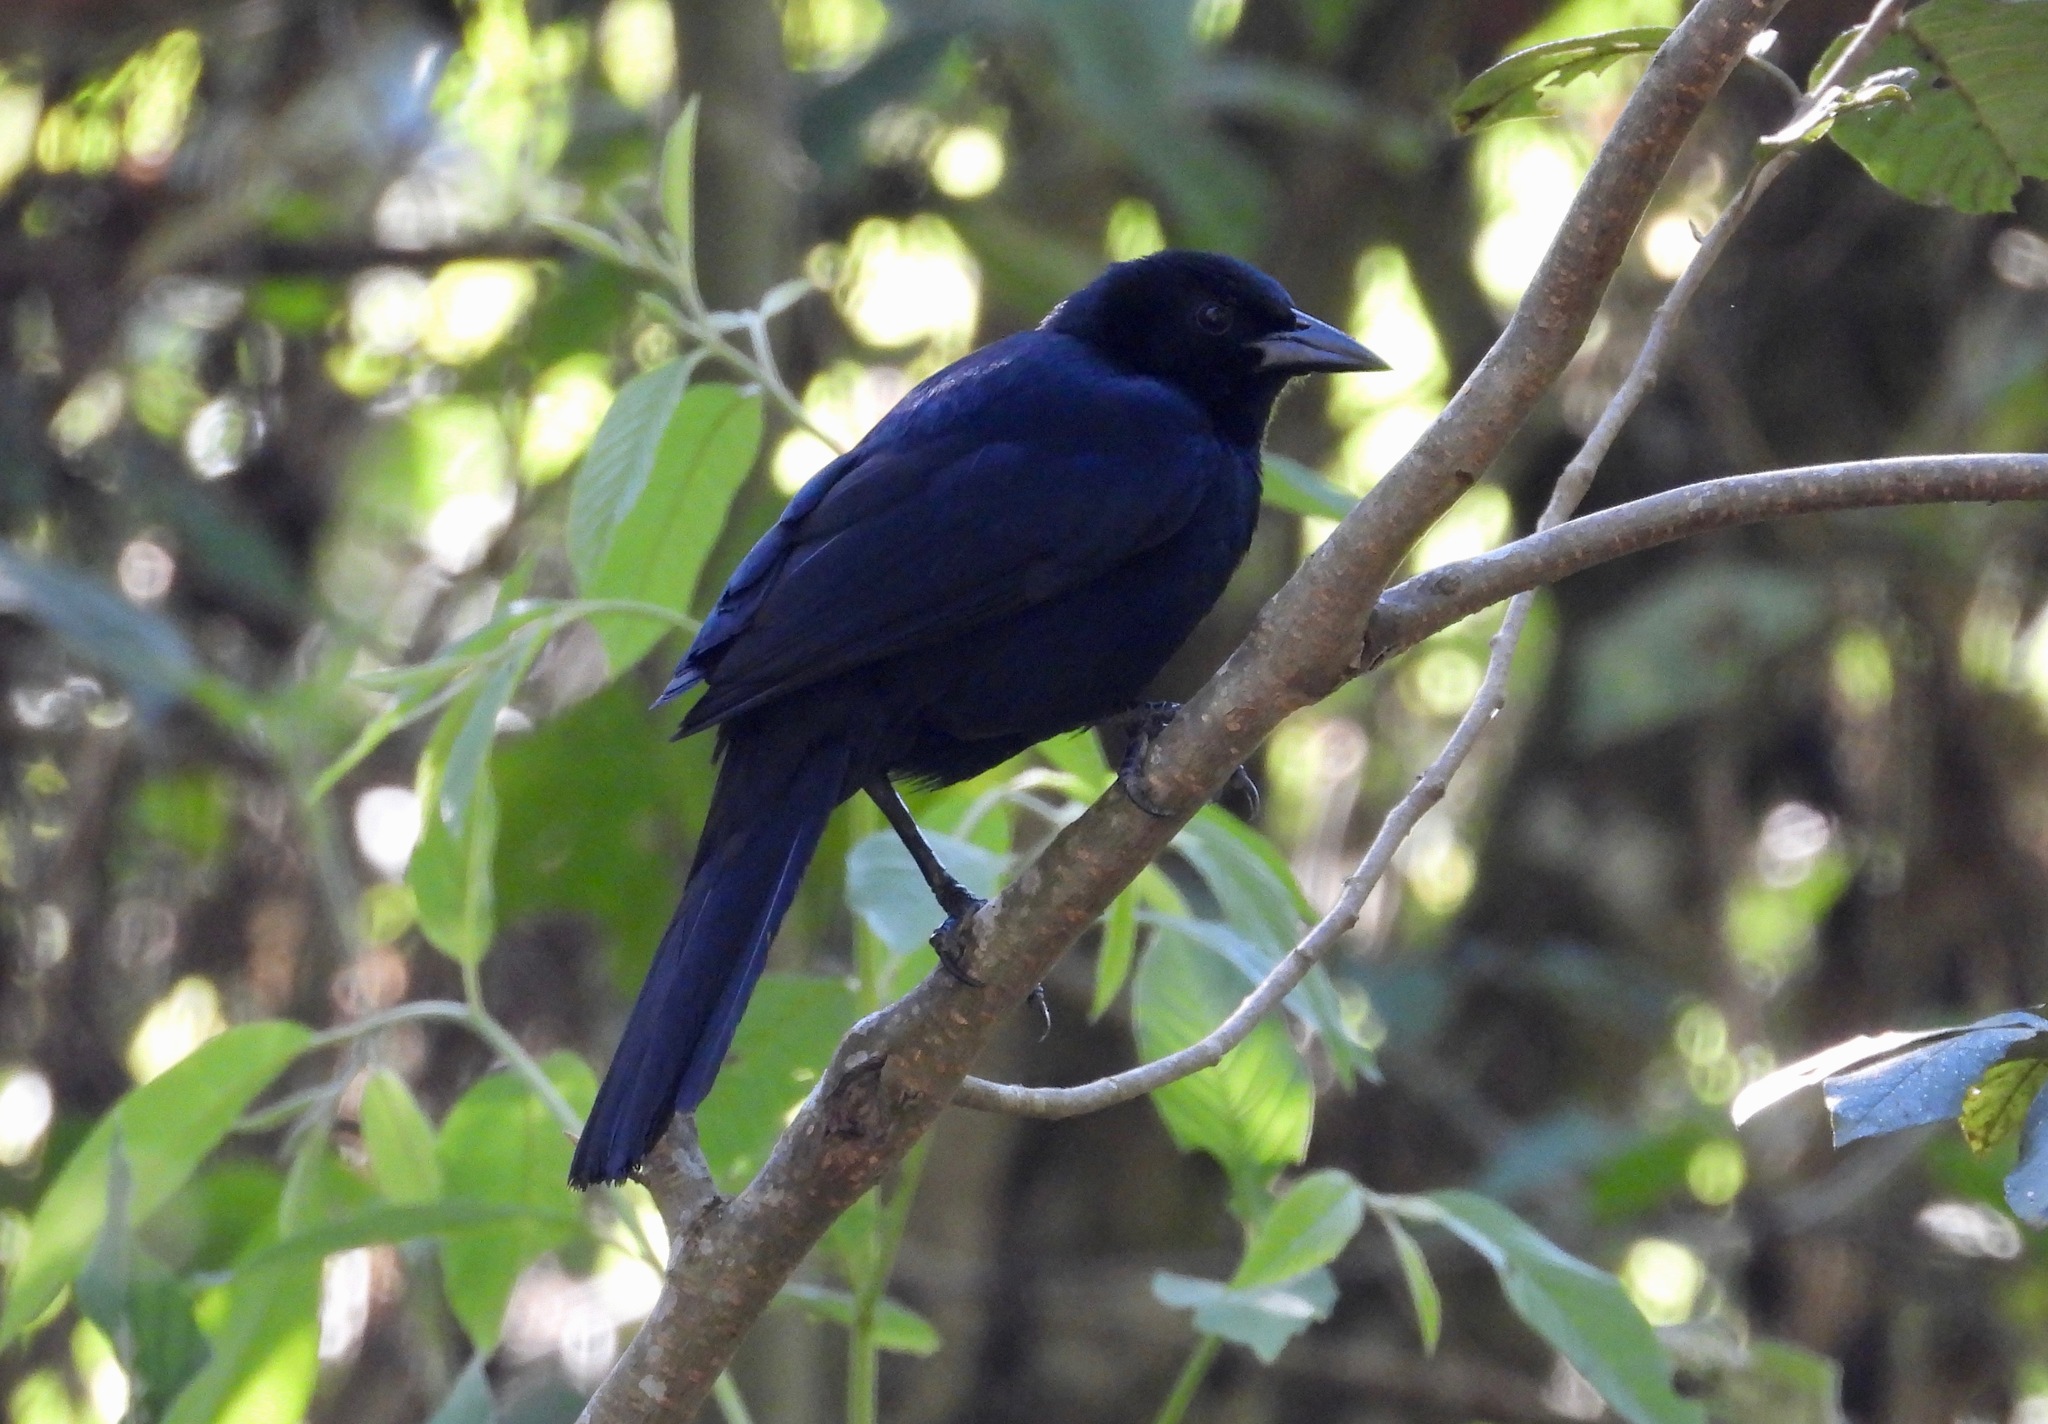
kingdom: Animalia
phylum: Chordata
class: Aves
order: Passeriformes
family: Icteridae
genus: Dives
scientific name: Dives dives
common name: Melodious blackbird
